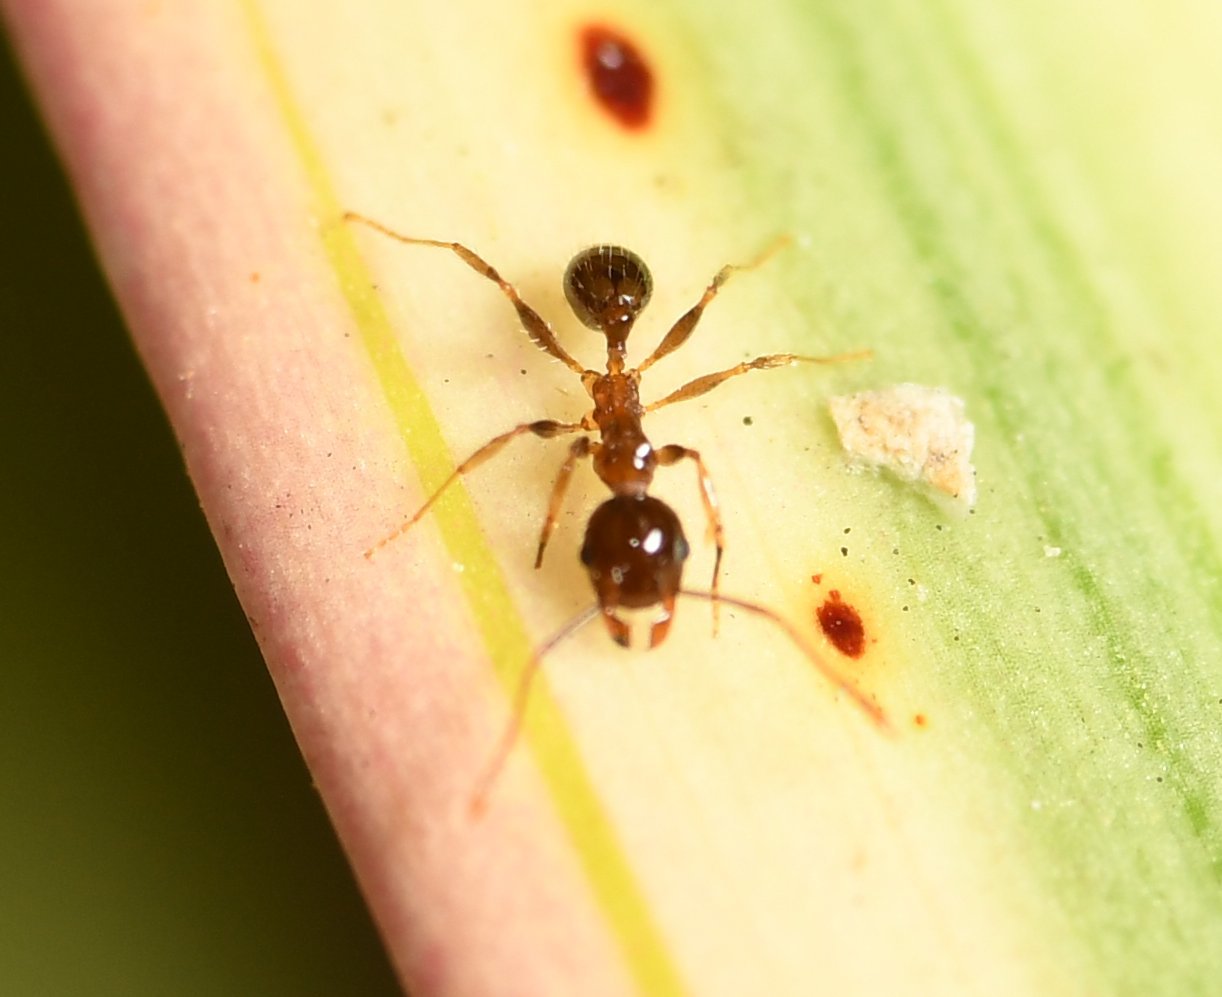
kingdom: Animalia
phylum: Arthropoda
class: Insecta
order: Hymenoptera
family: Formicidae
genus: Pheidole
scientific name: Pheidole megacephala
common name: Bigheaded ant
